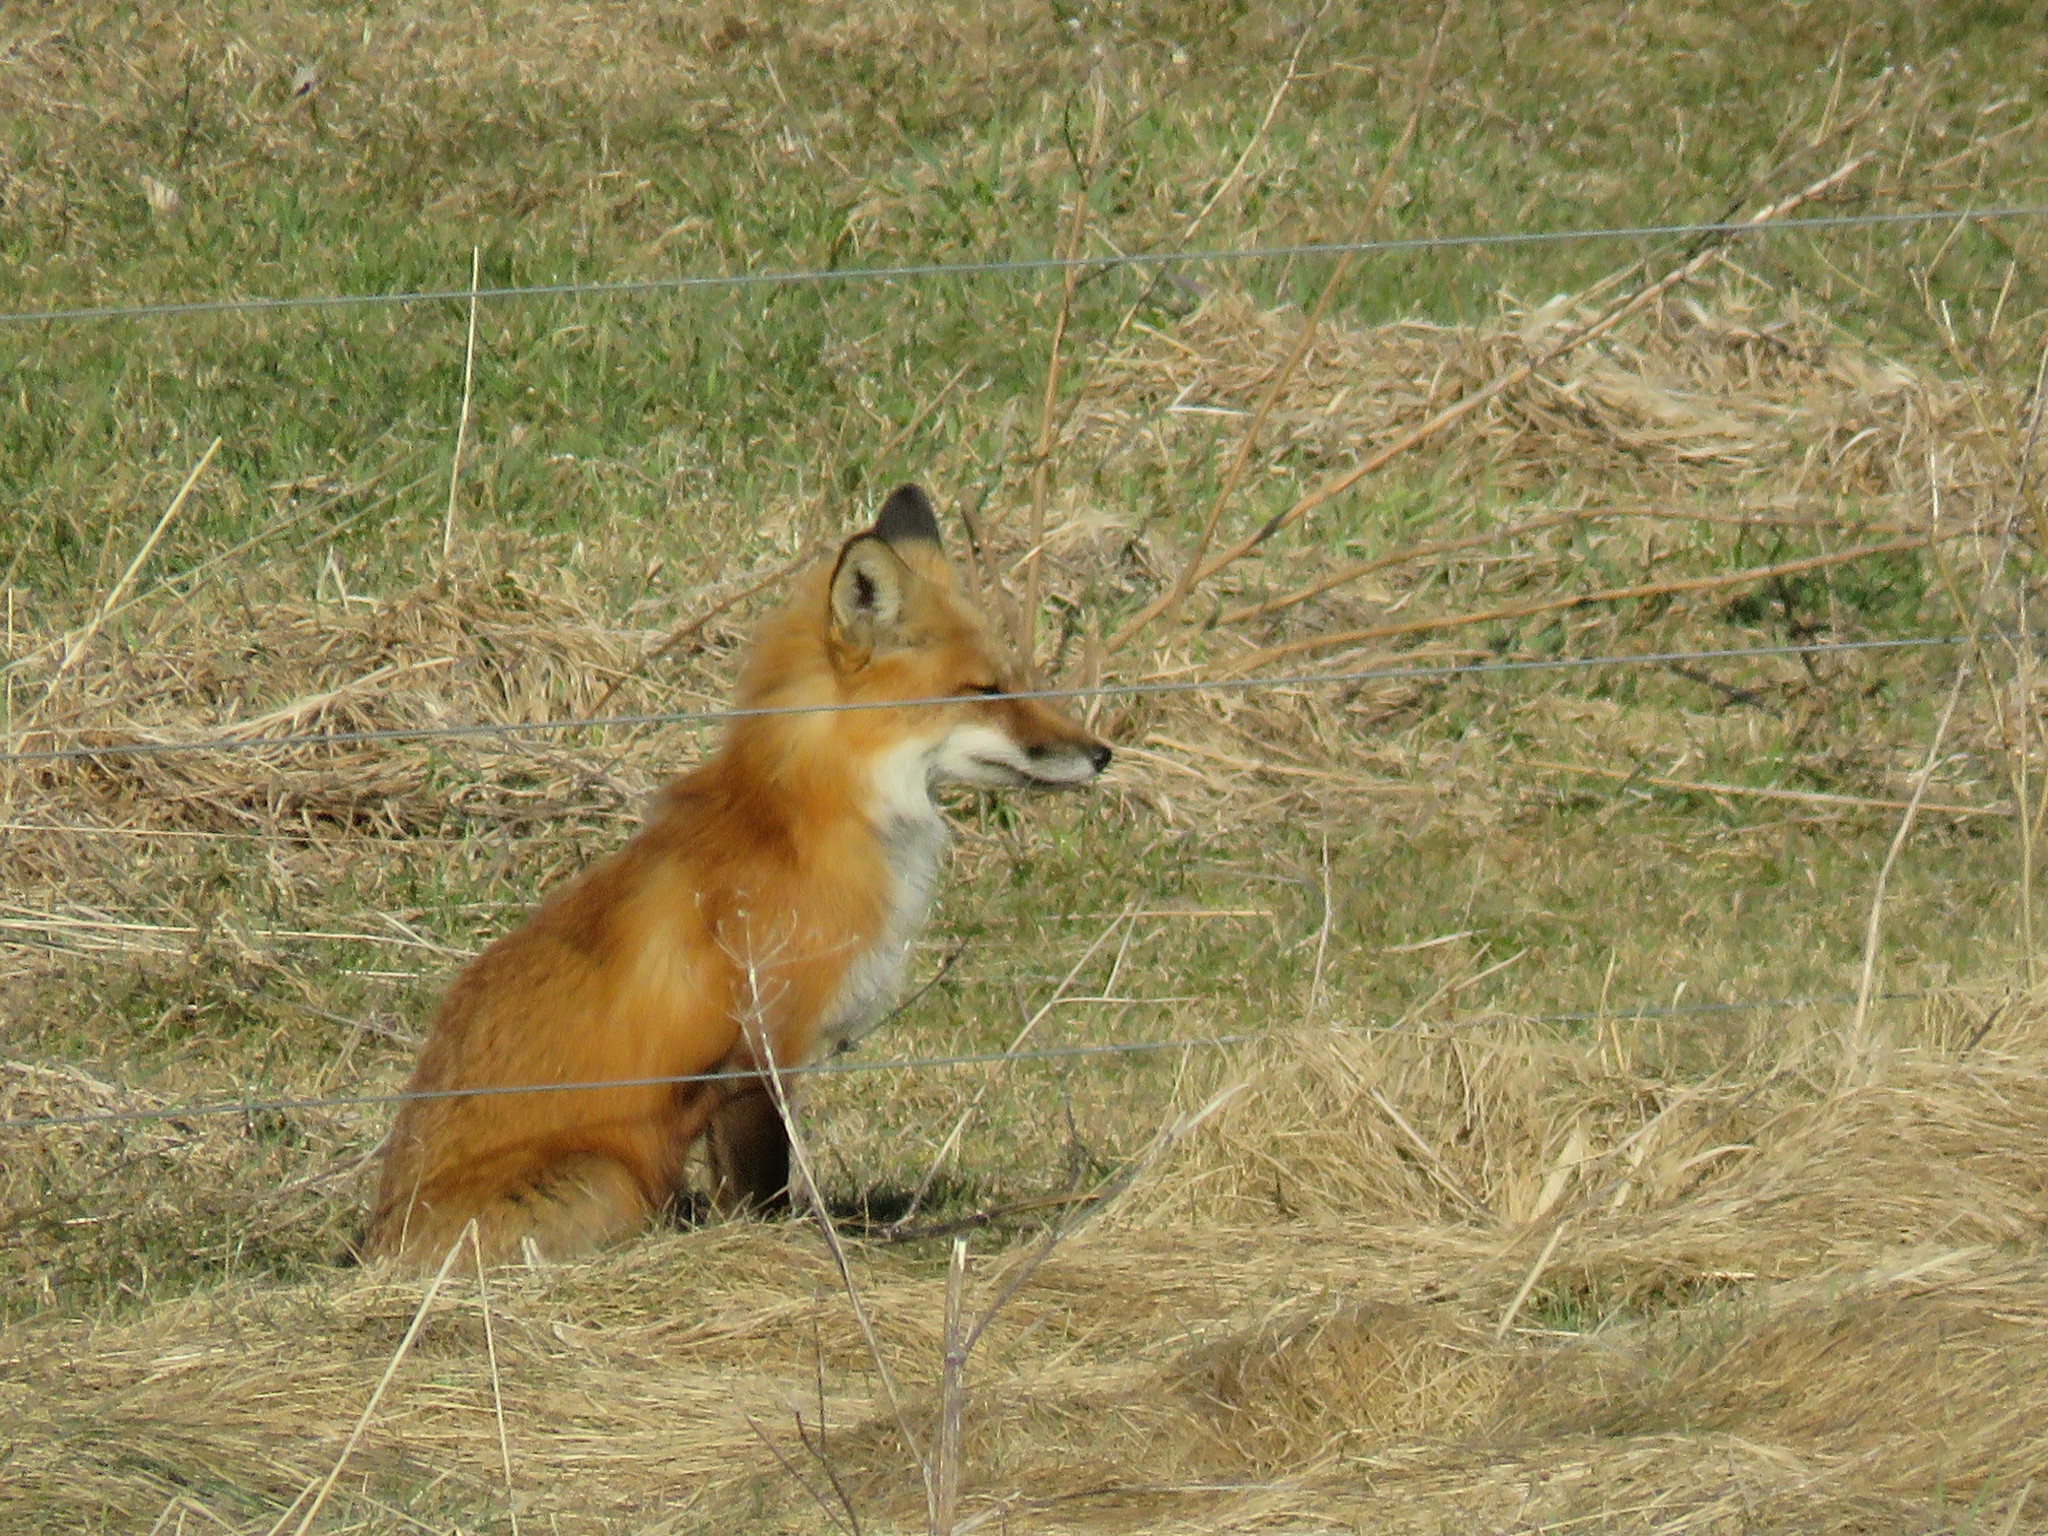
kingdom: Animalia
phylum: Chordata
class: Mammalia
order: Carnivora
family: Canidae
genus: Vulpes
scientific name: Vulpes vulpes
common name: Red fox
